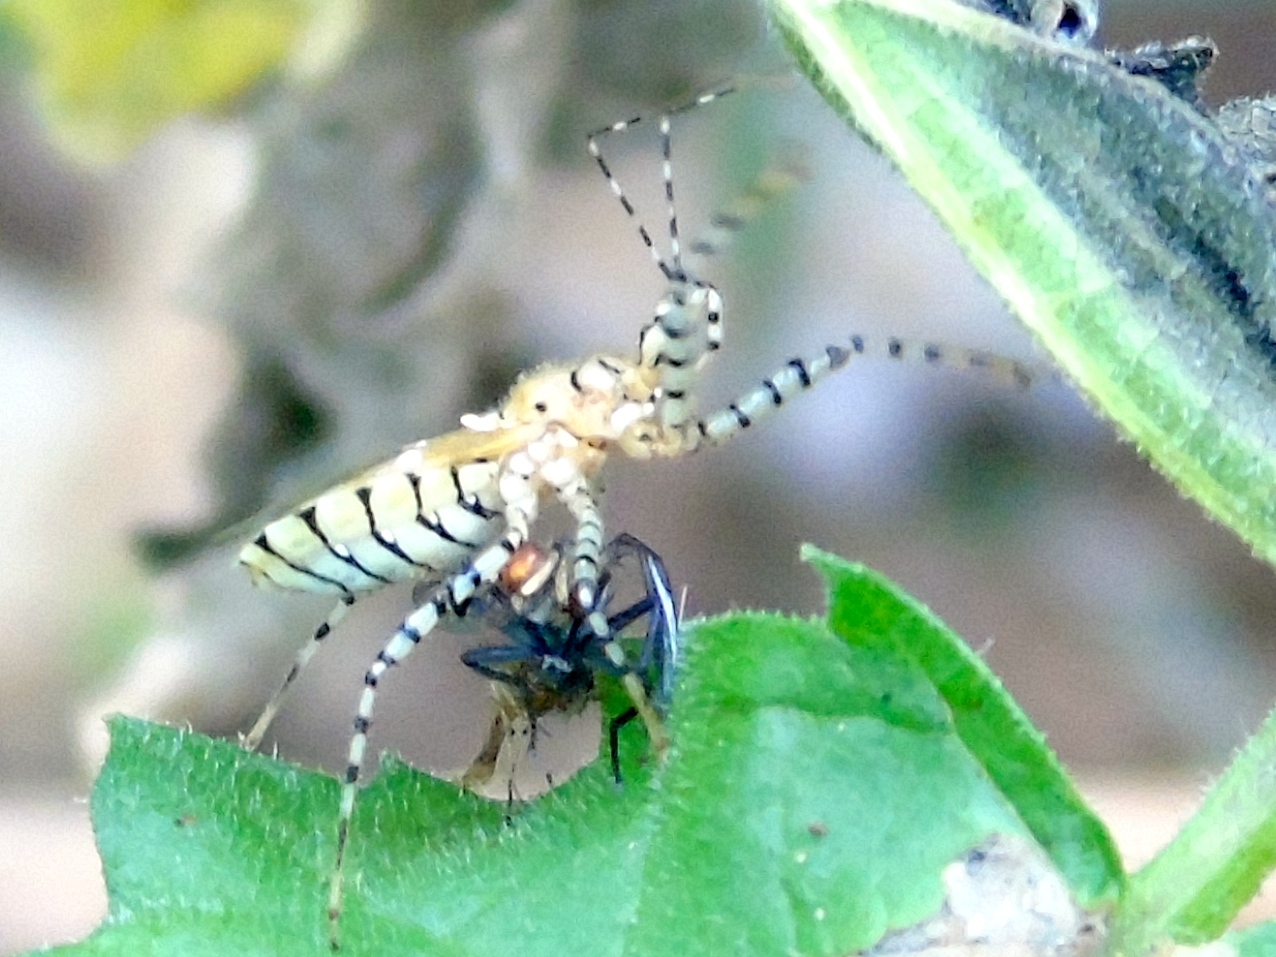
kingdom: Animalia
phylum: Arthropoda
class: Insecta
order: Hemiptera
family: Reduviidae
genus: Pselliopus
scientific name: Pselliopus
